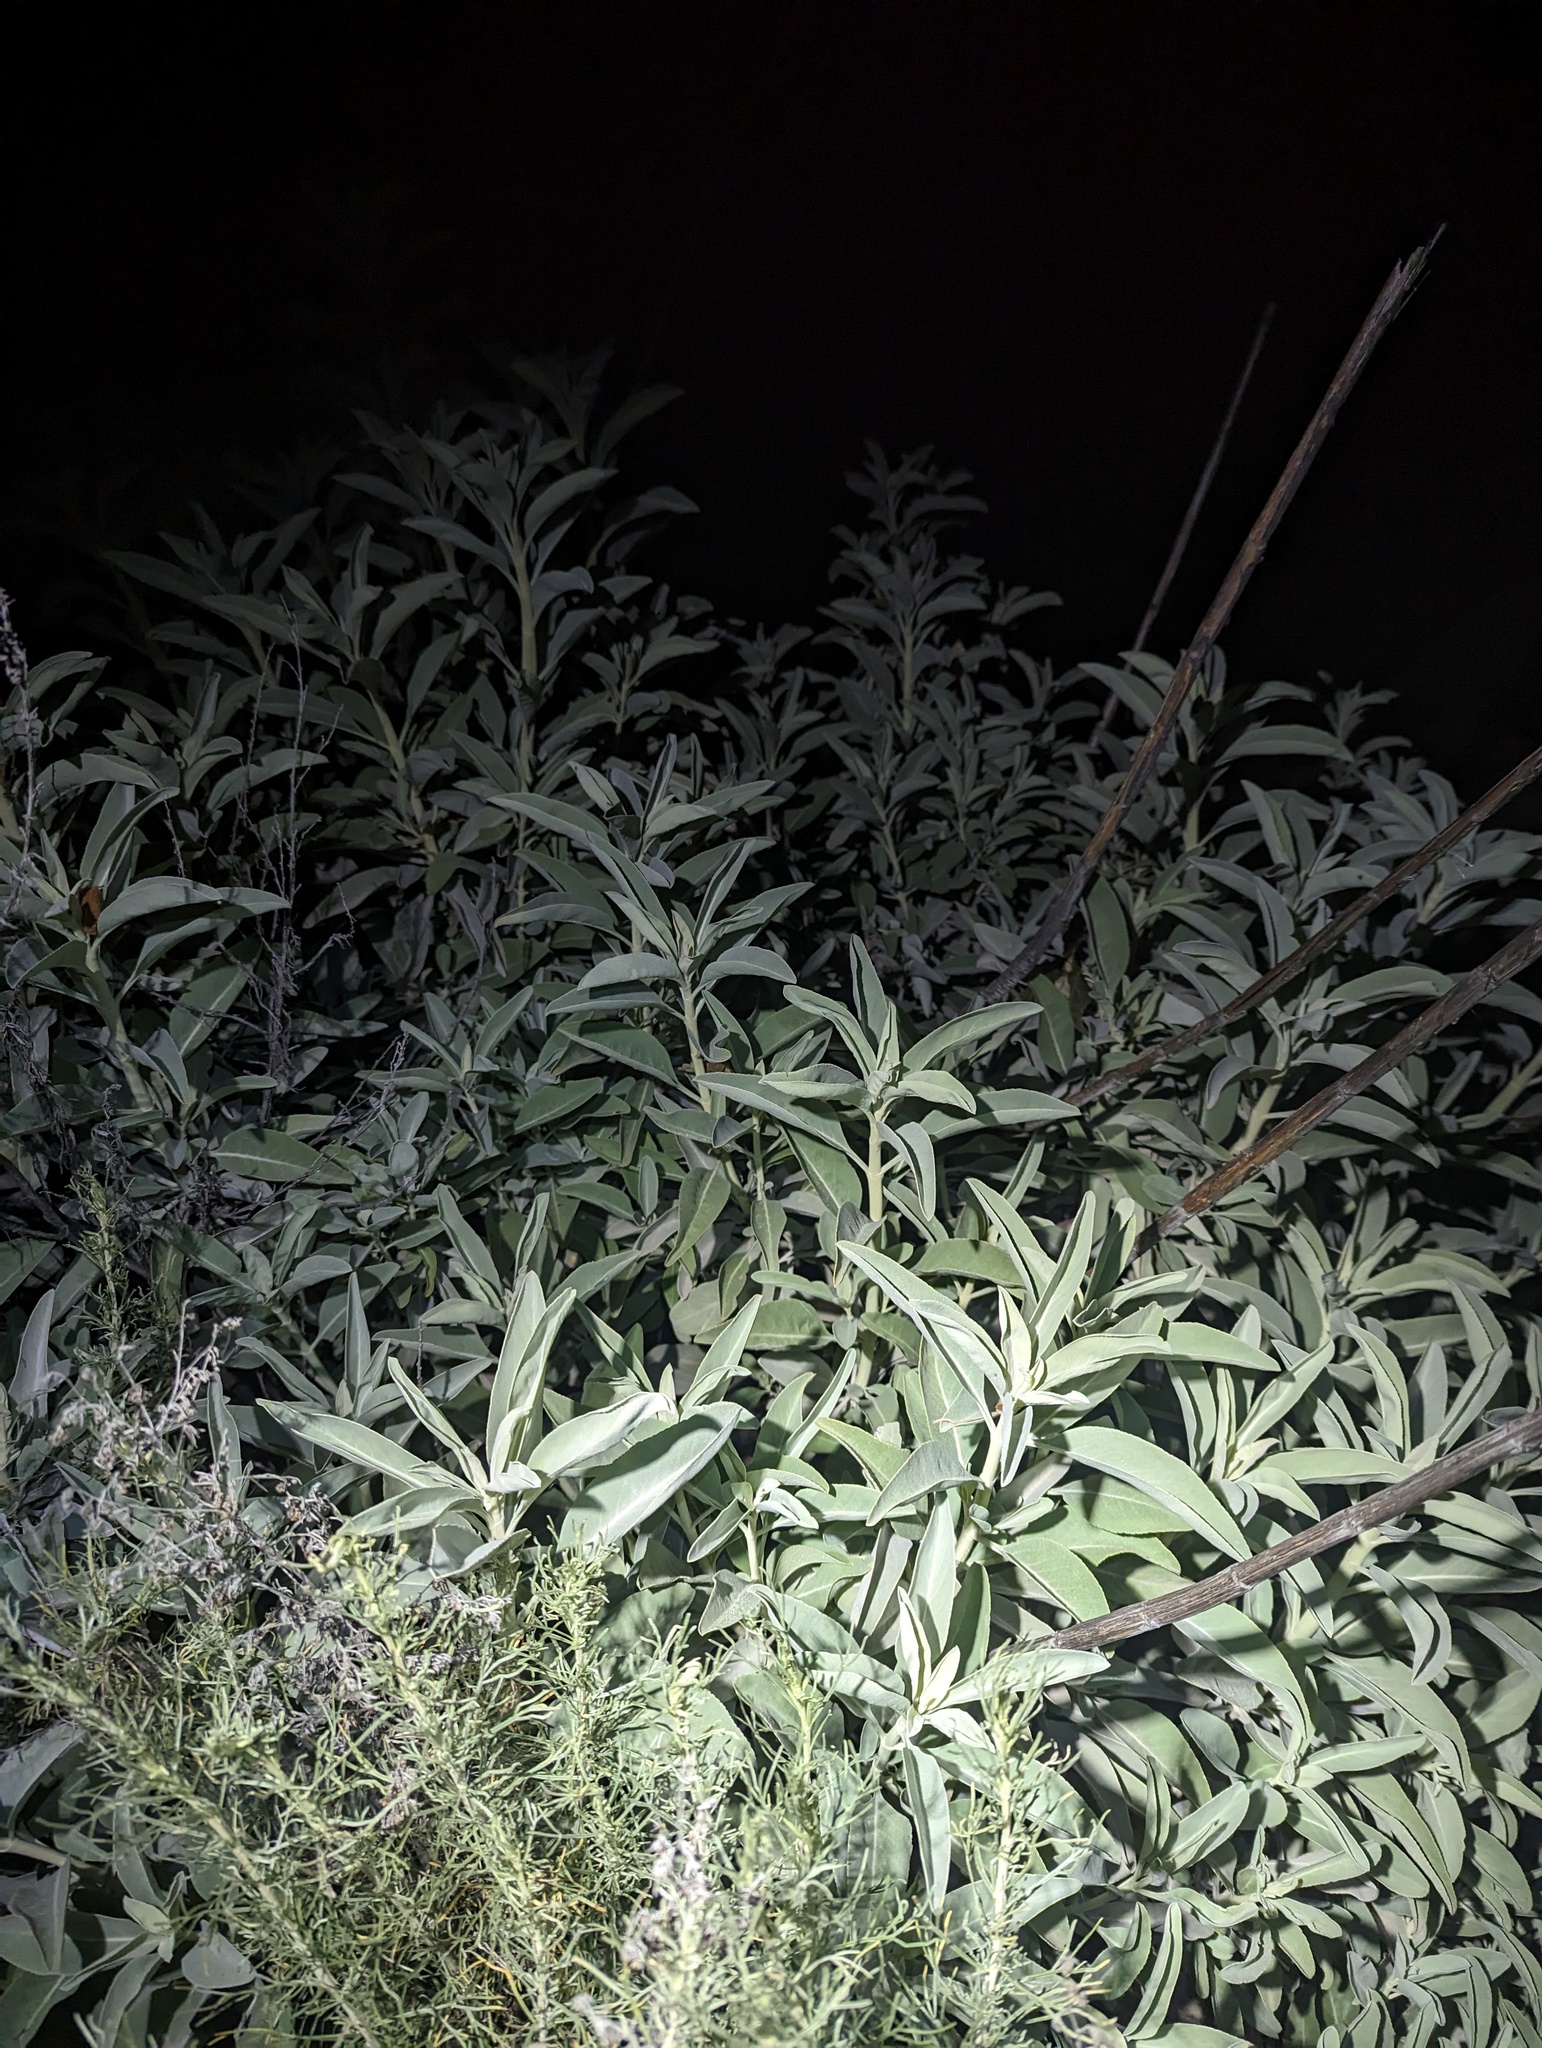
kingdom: Plantae
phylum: Tracheophyta
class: Magnoliopsida
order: Lamiales
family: Lamiaceae
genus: Salvia
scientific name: Salvia apiana
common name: White sage
